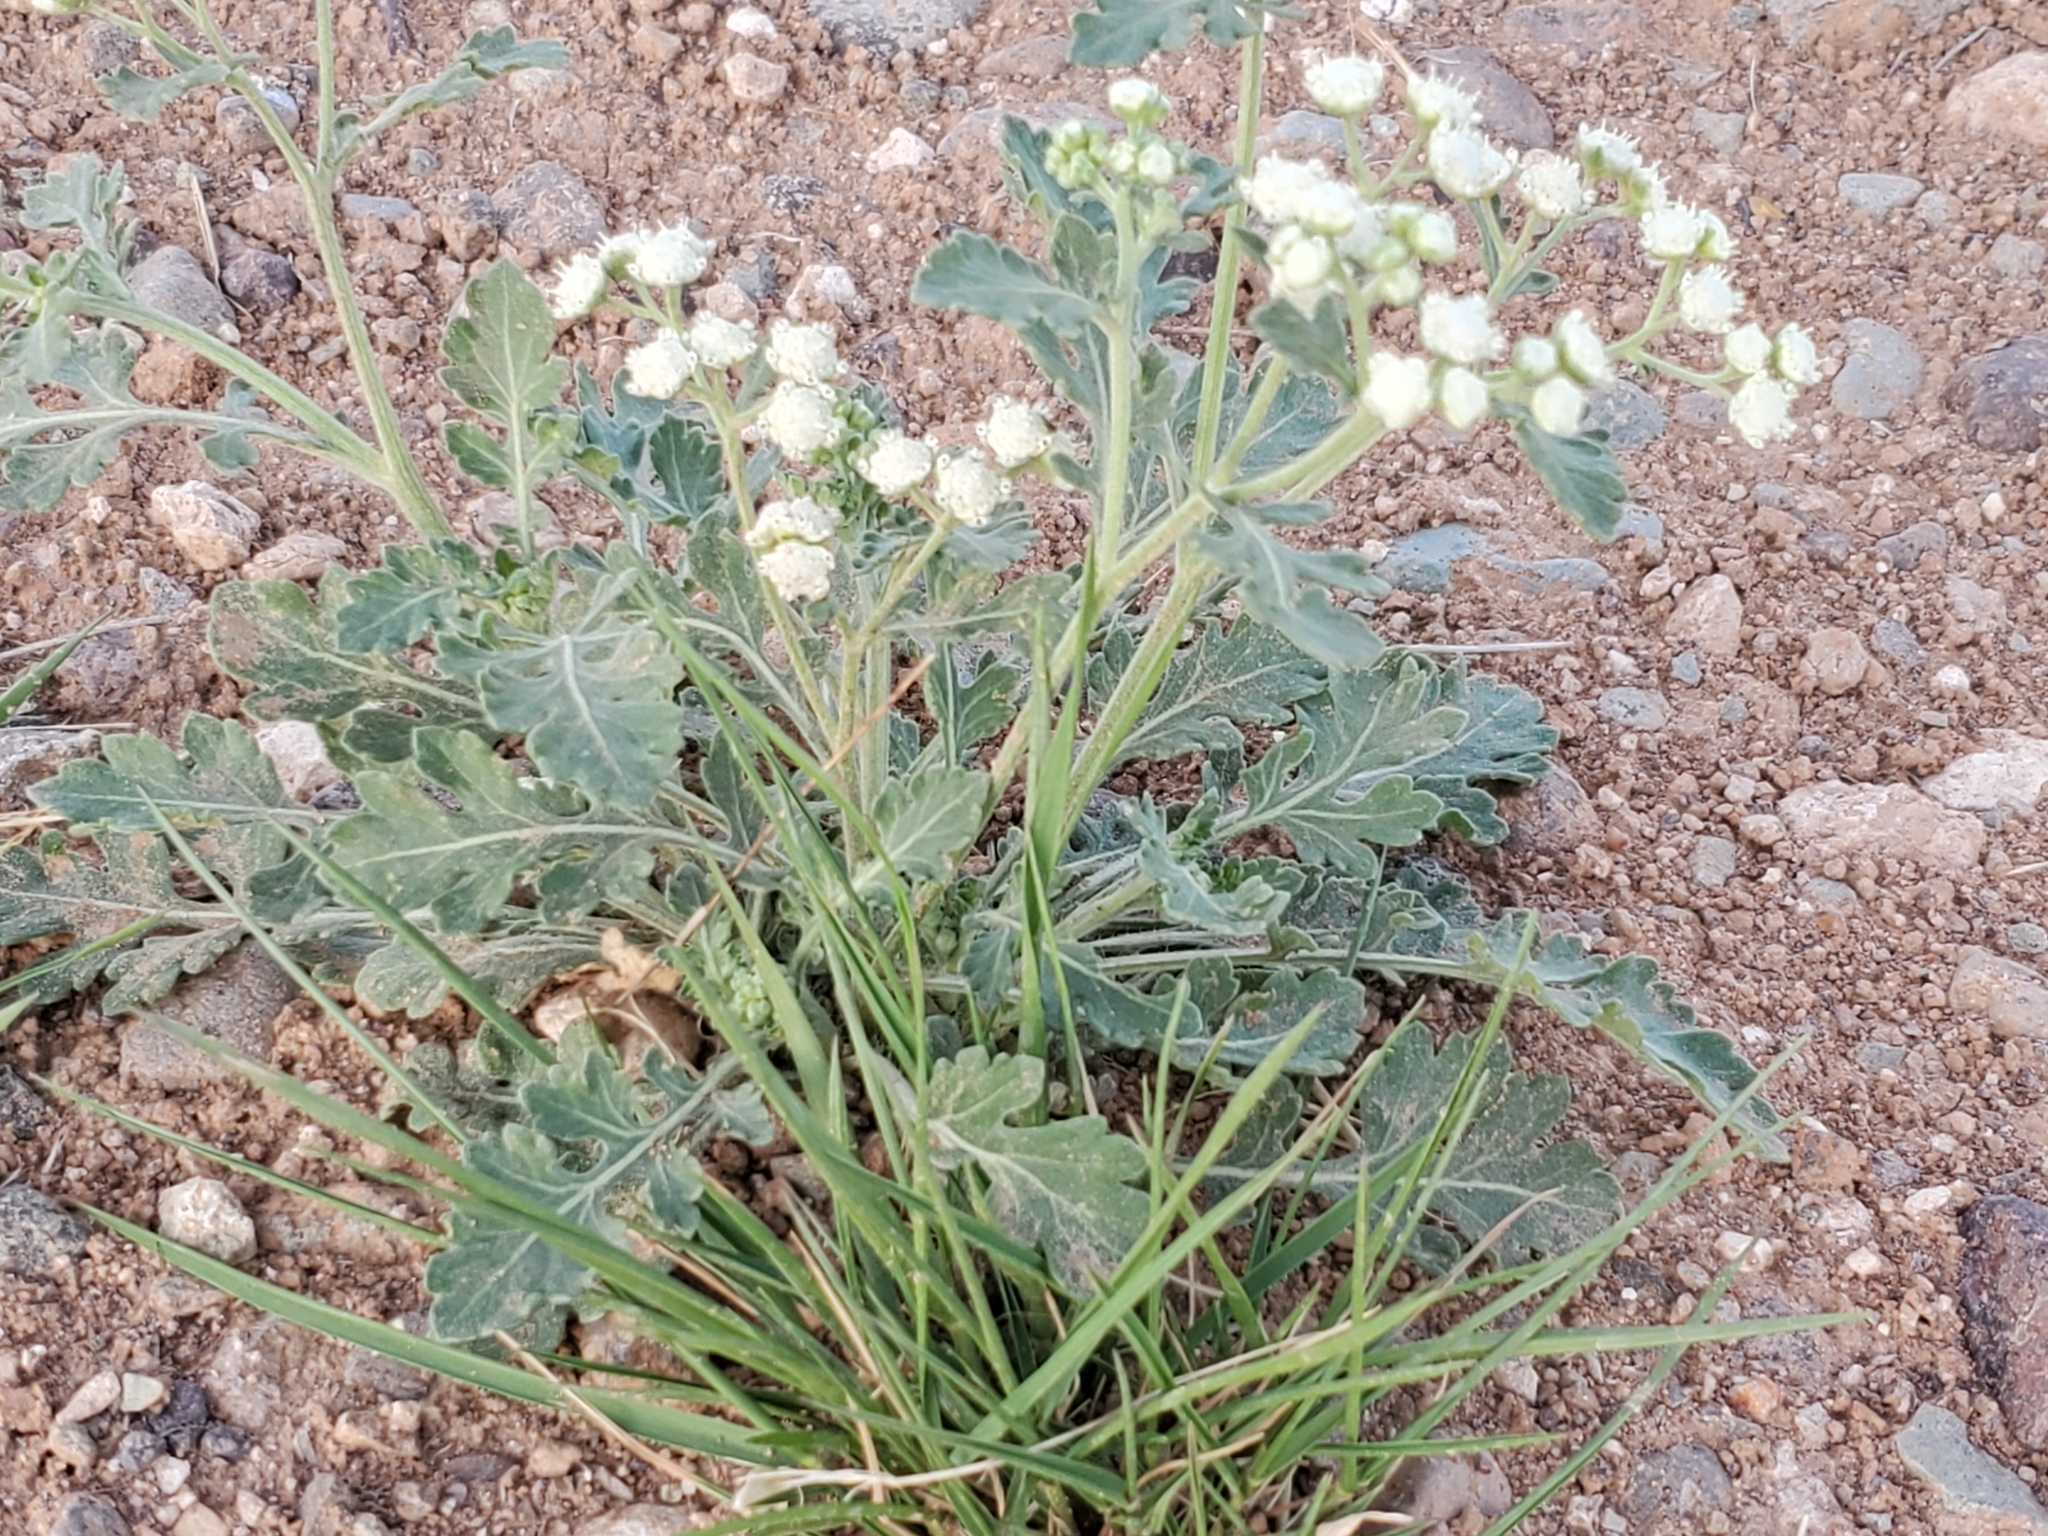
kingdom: Plantae
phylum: Tracheophyta
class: Magnoliopsida
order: Asterales
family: Asteraceae
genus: Parthenium
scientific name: Parthenium confertum
